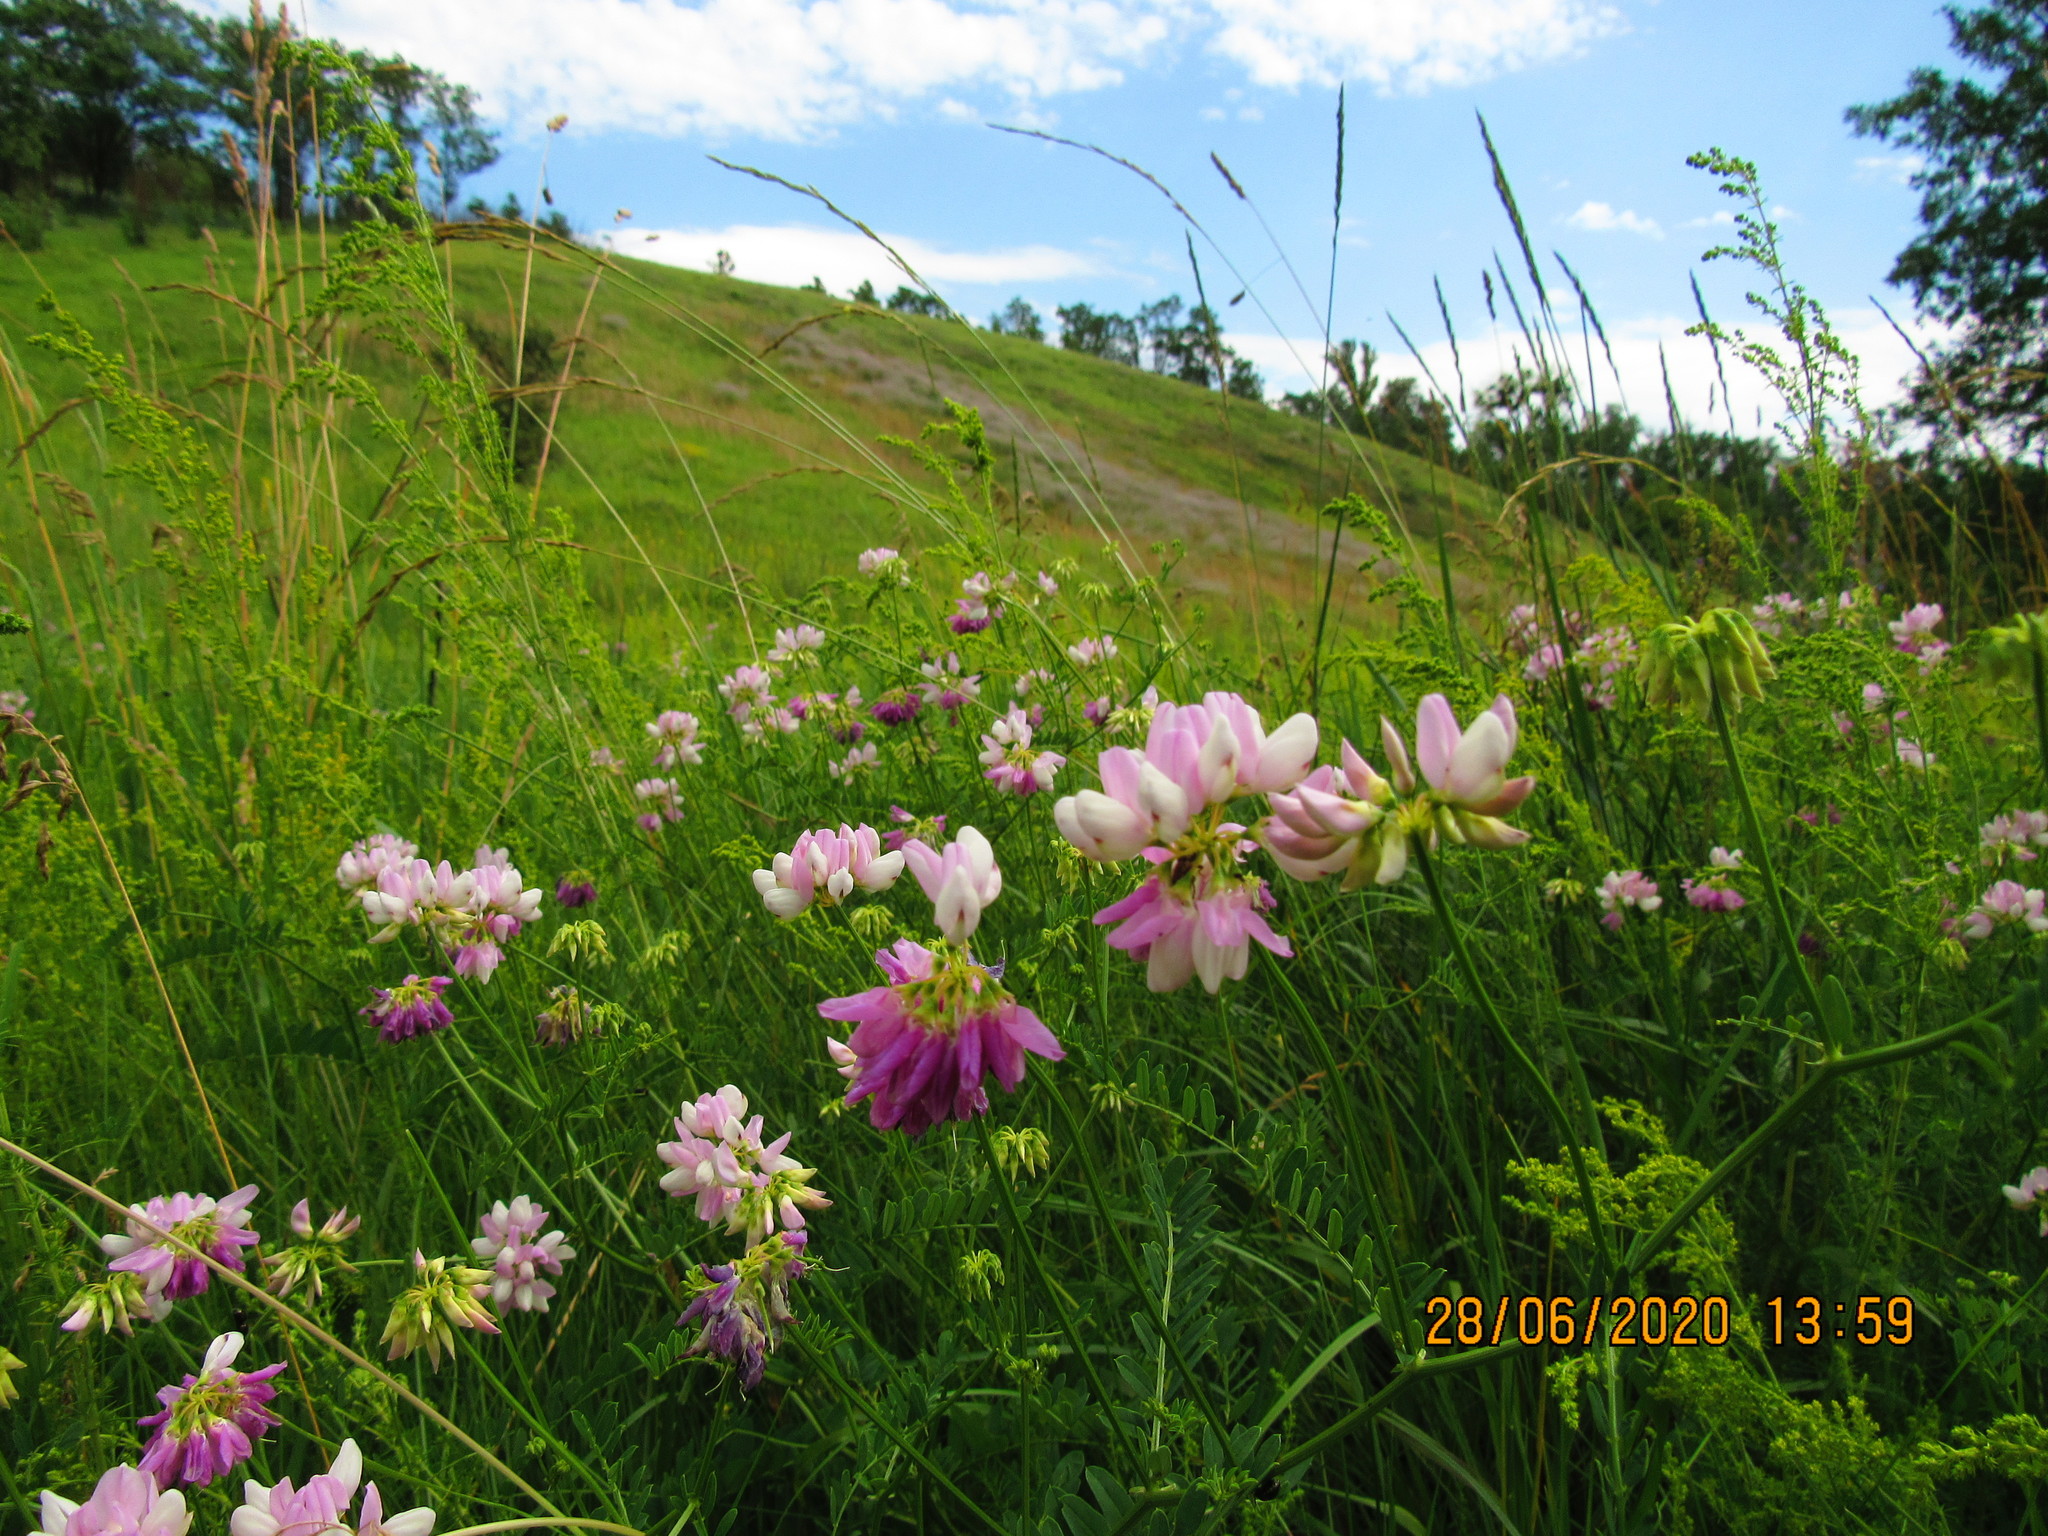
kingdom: Plantae
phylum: Tracheophyta
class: Magnoliopsida
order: Fabales
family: Fabaceae
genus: Coronilla
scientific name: Coronilla varia
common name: Crownvetch
